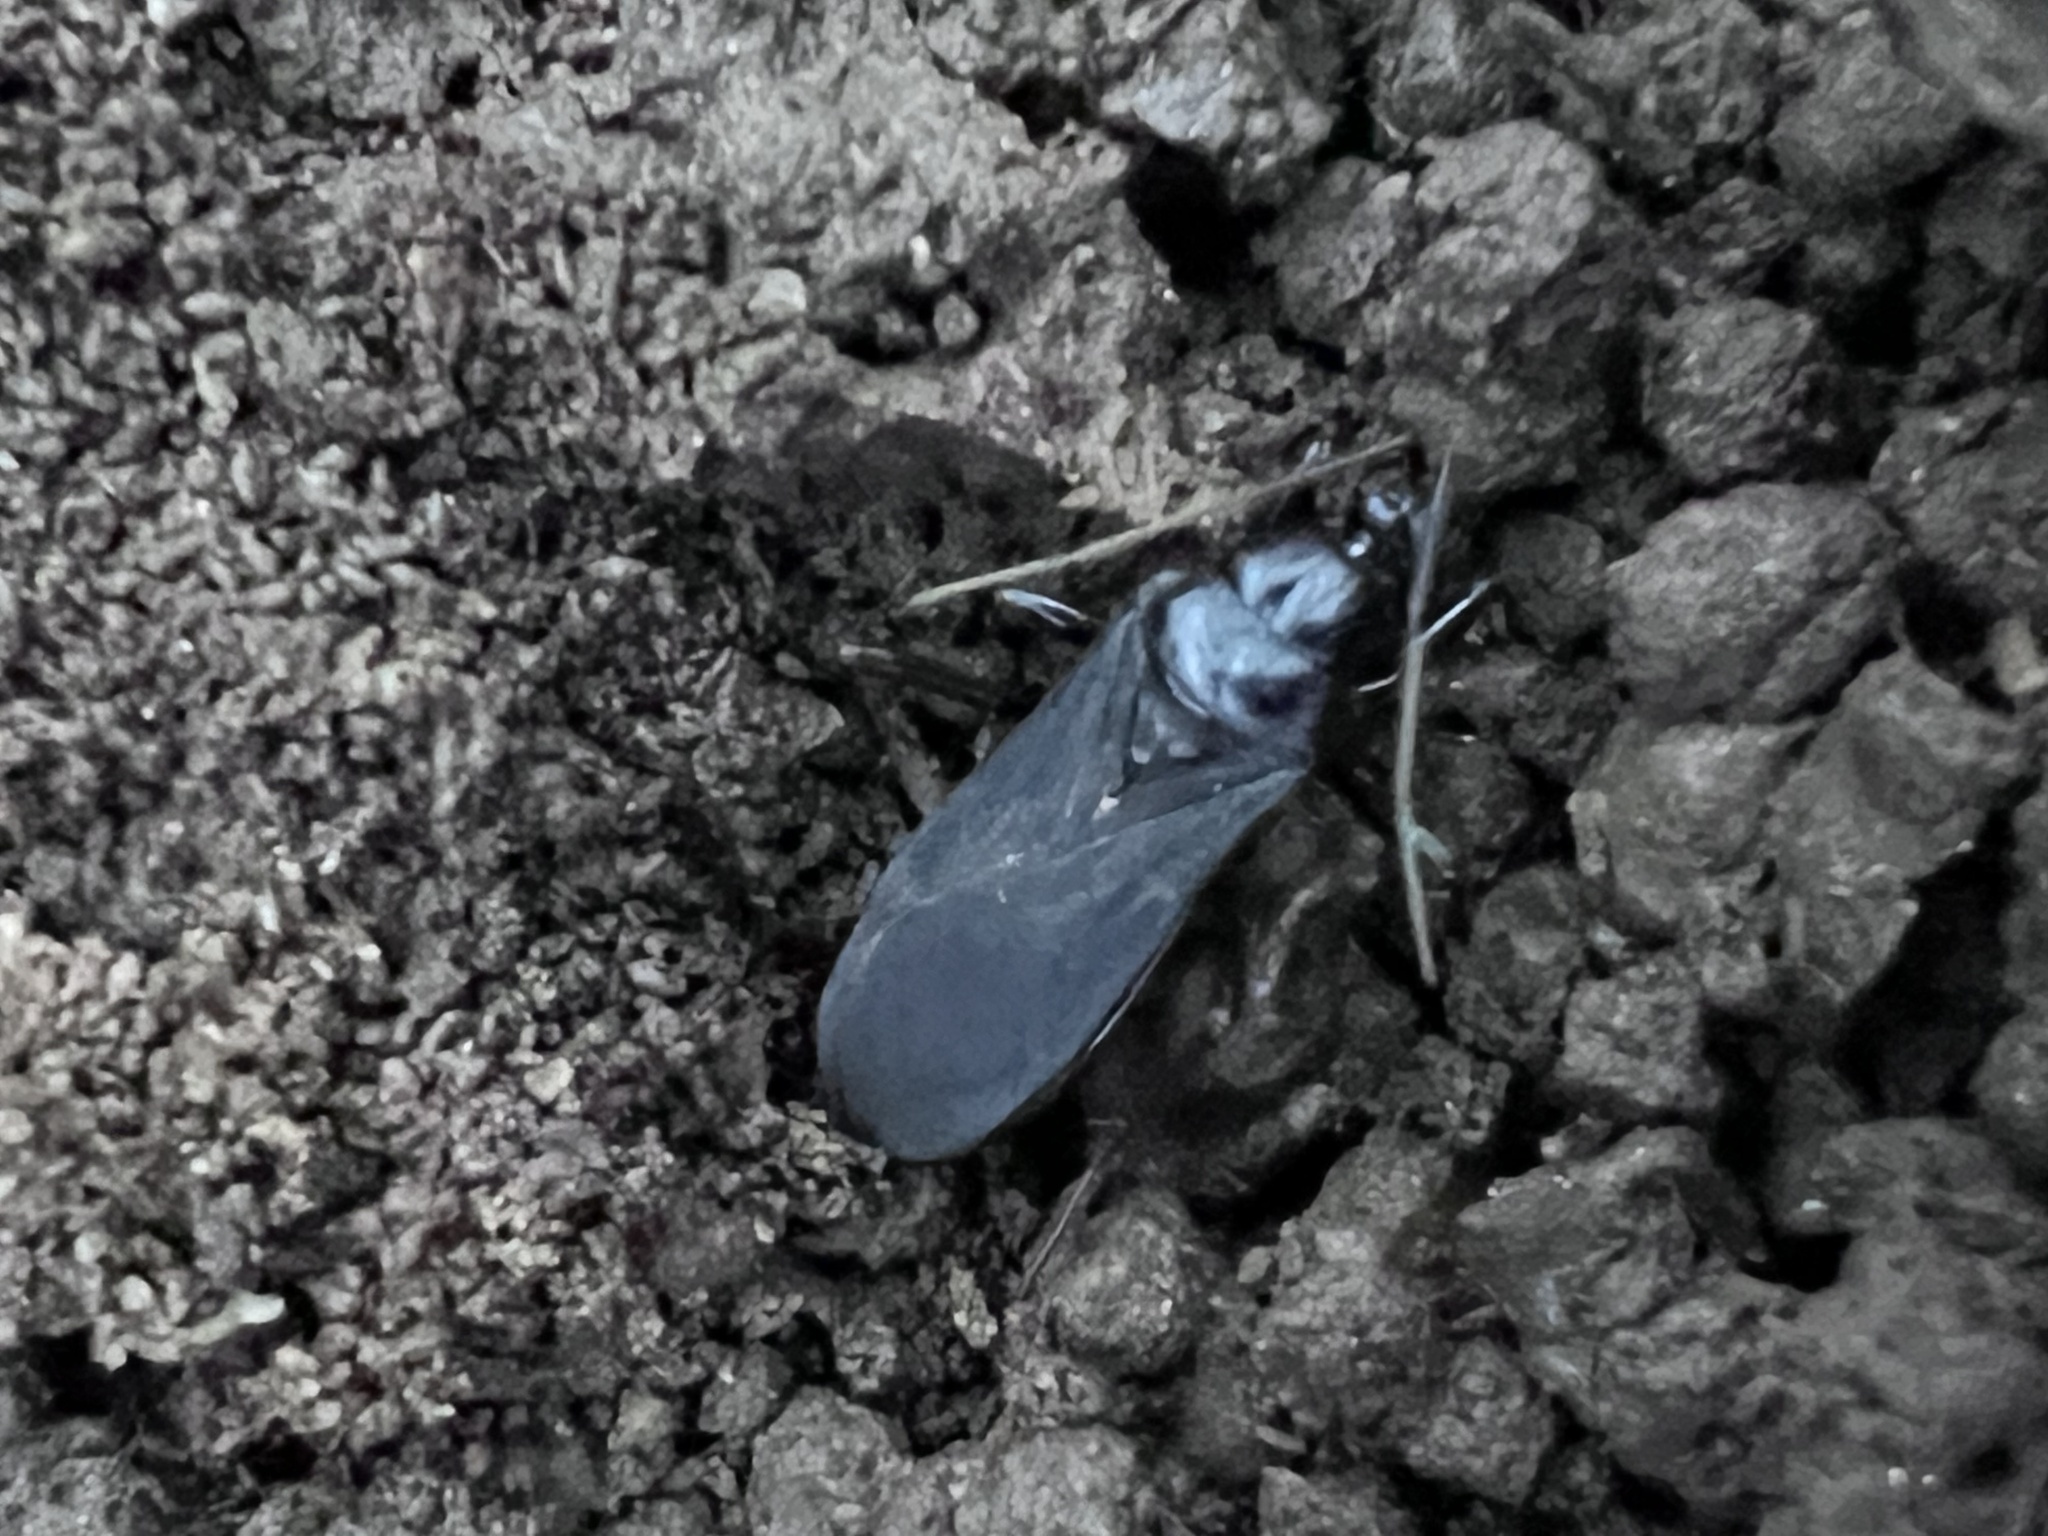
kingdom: Animalia
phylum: Arthropoda
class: Insecta
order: Hemiptera
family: Reduviidae
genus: Melanolestes
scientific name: Melanolestes picipes
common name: Assassin bug
